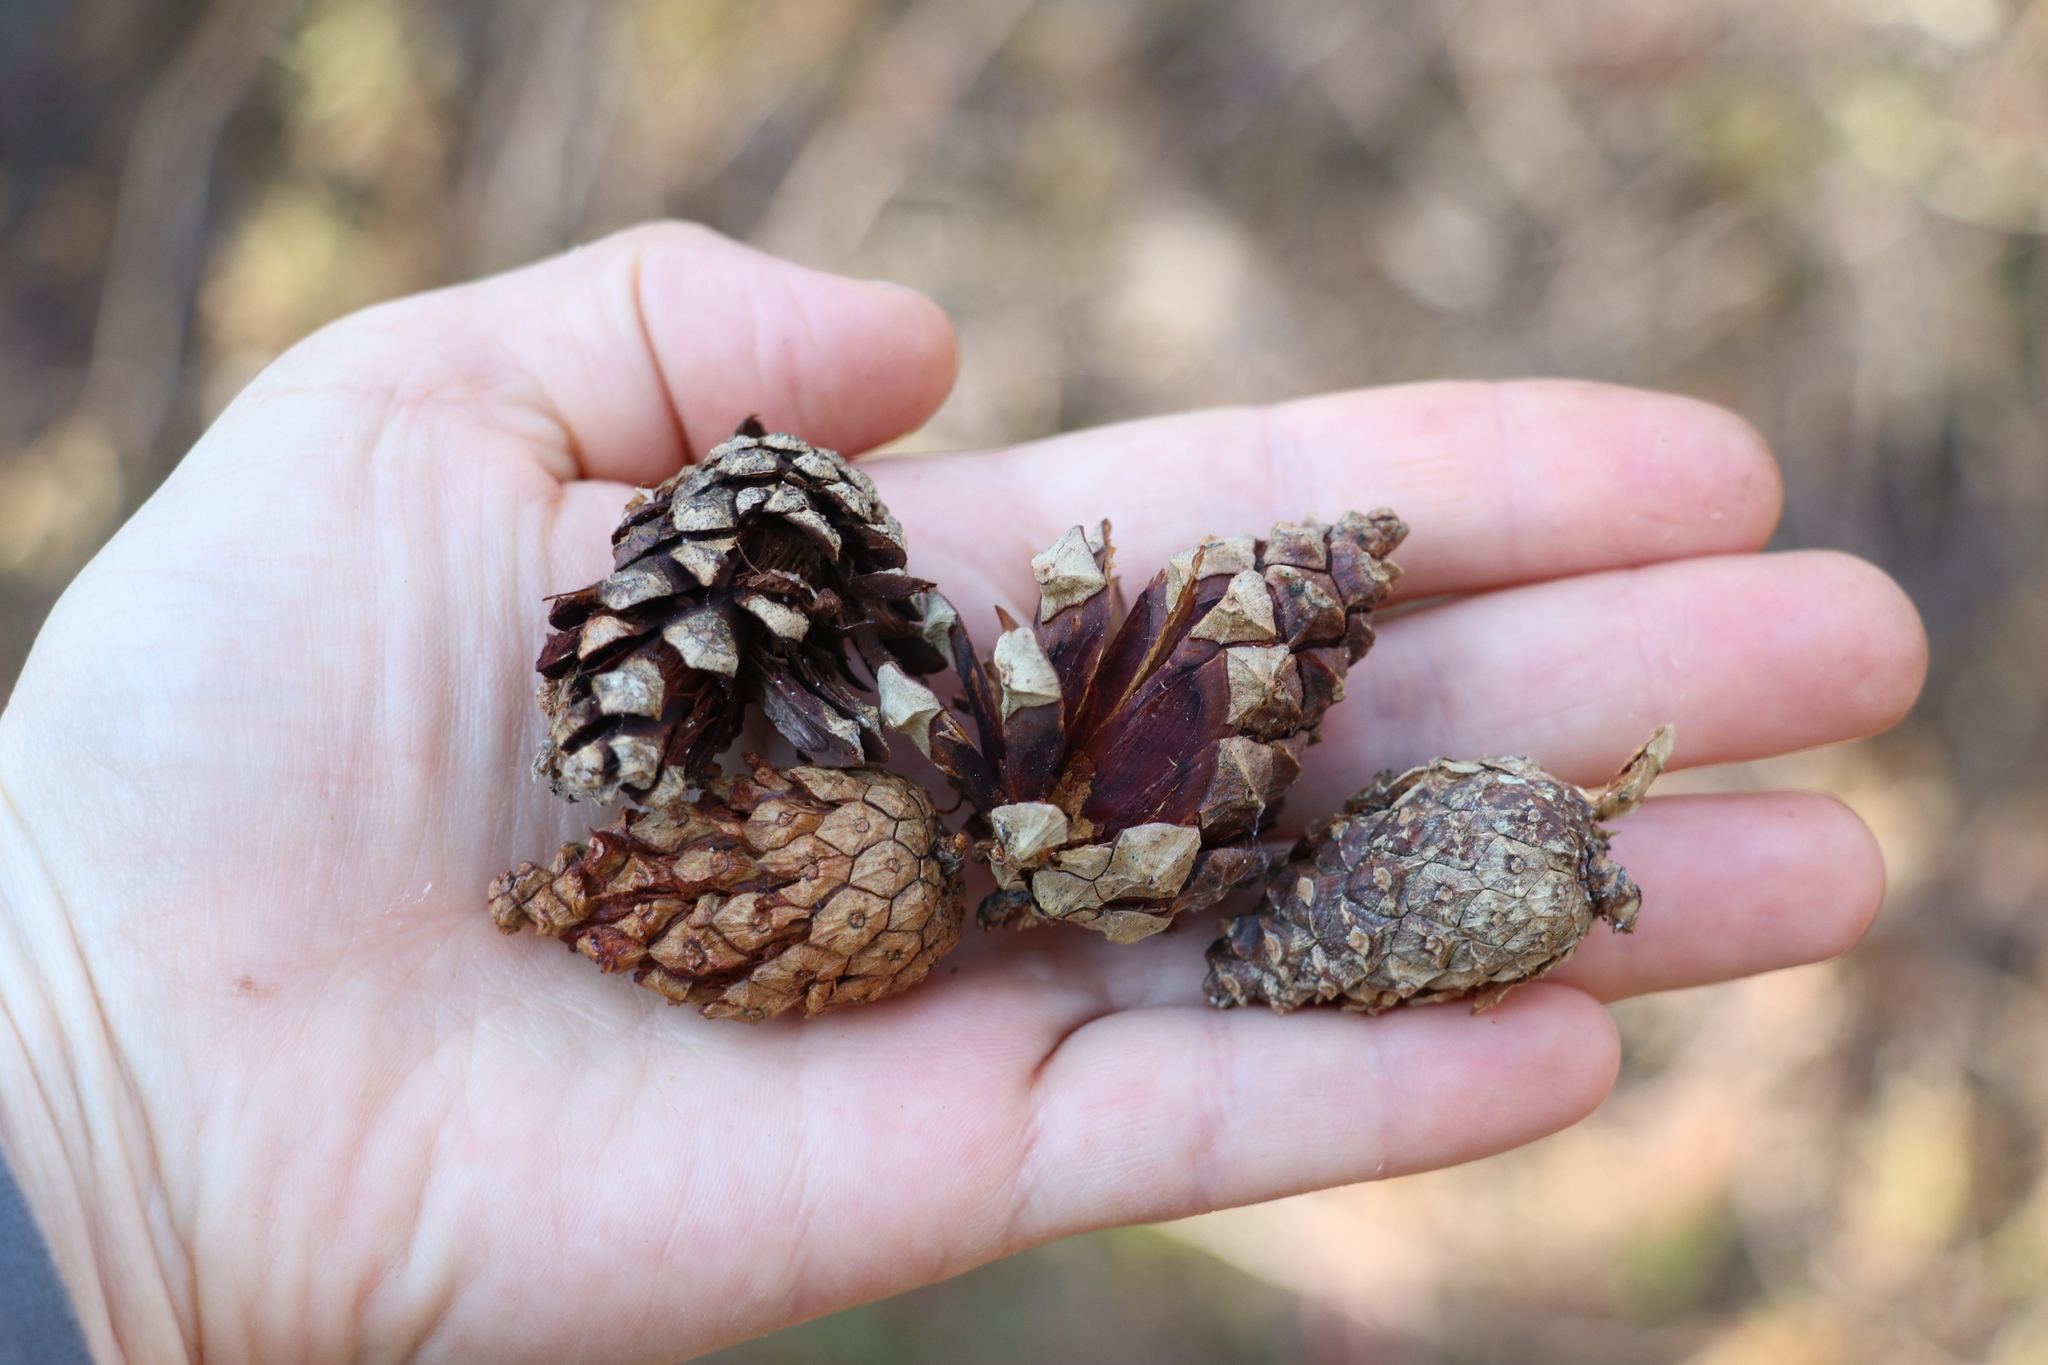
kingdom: Plantae
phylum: Tracheophyta
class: Pinopsida
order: Pinales
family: Pinaceae
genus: Pinus
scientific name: Pinus sylvestris
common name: Scots pine
